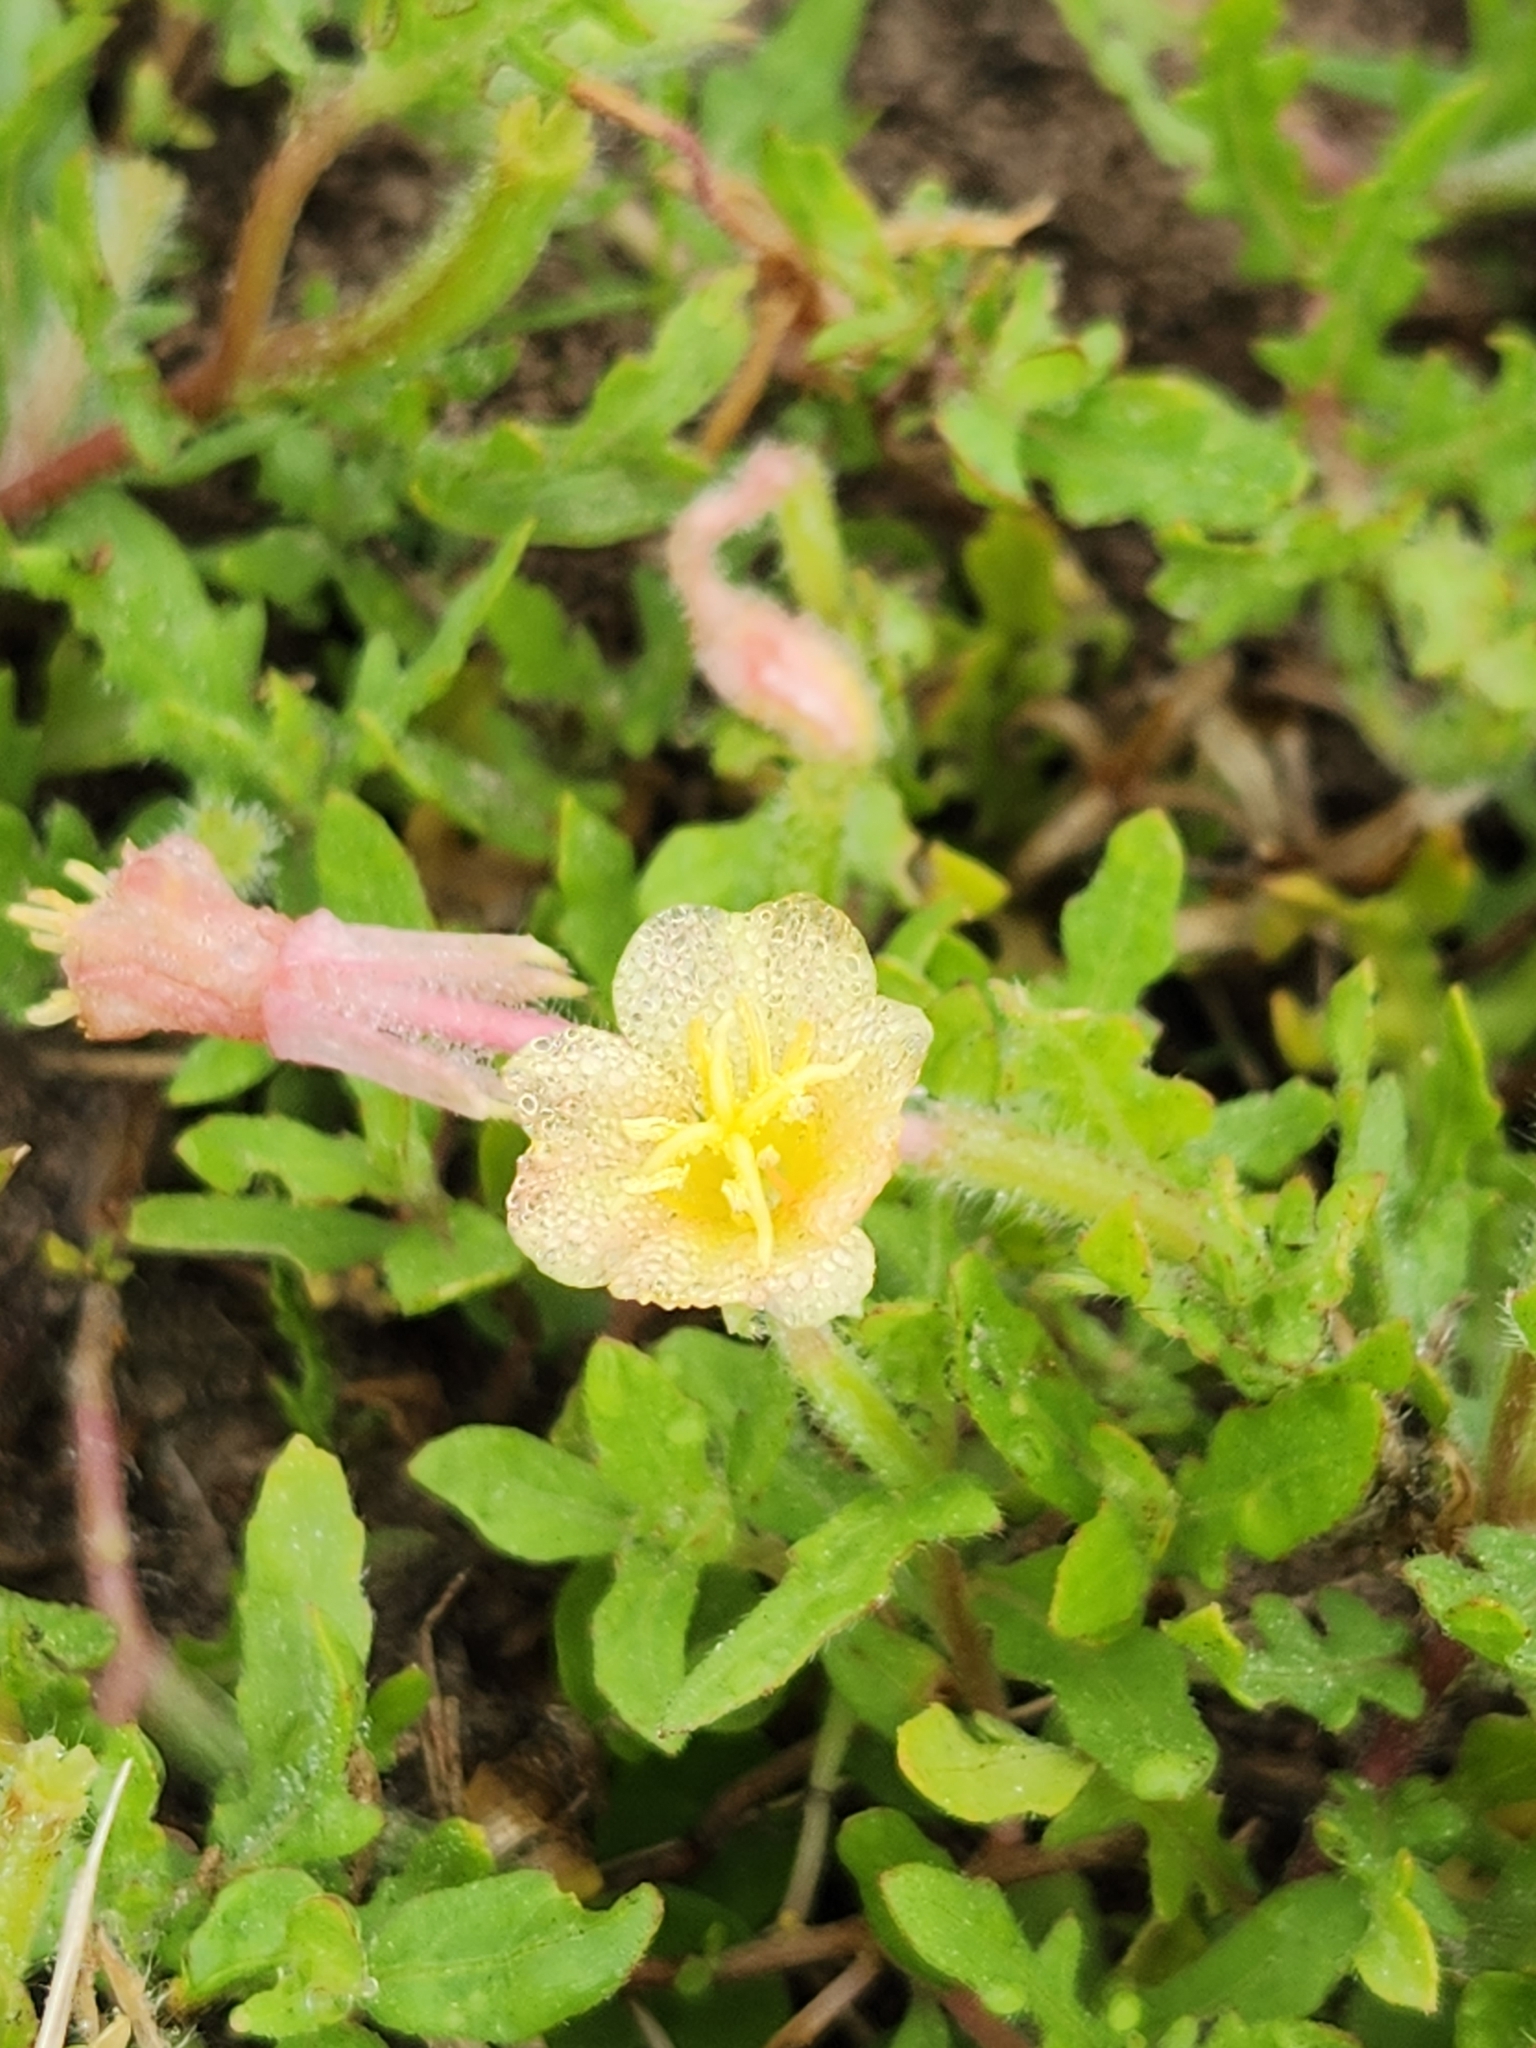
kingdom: Plantae
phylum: Tracheophyta
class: Magnoliopsida
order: Myrtales
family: Onagraceae
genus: Oenothera
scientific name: Oenothera laciniata
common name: Cut-leaved evening-primrose
